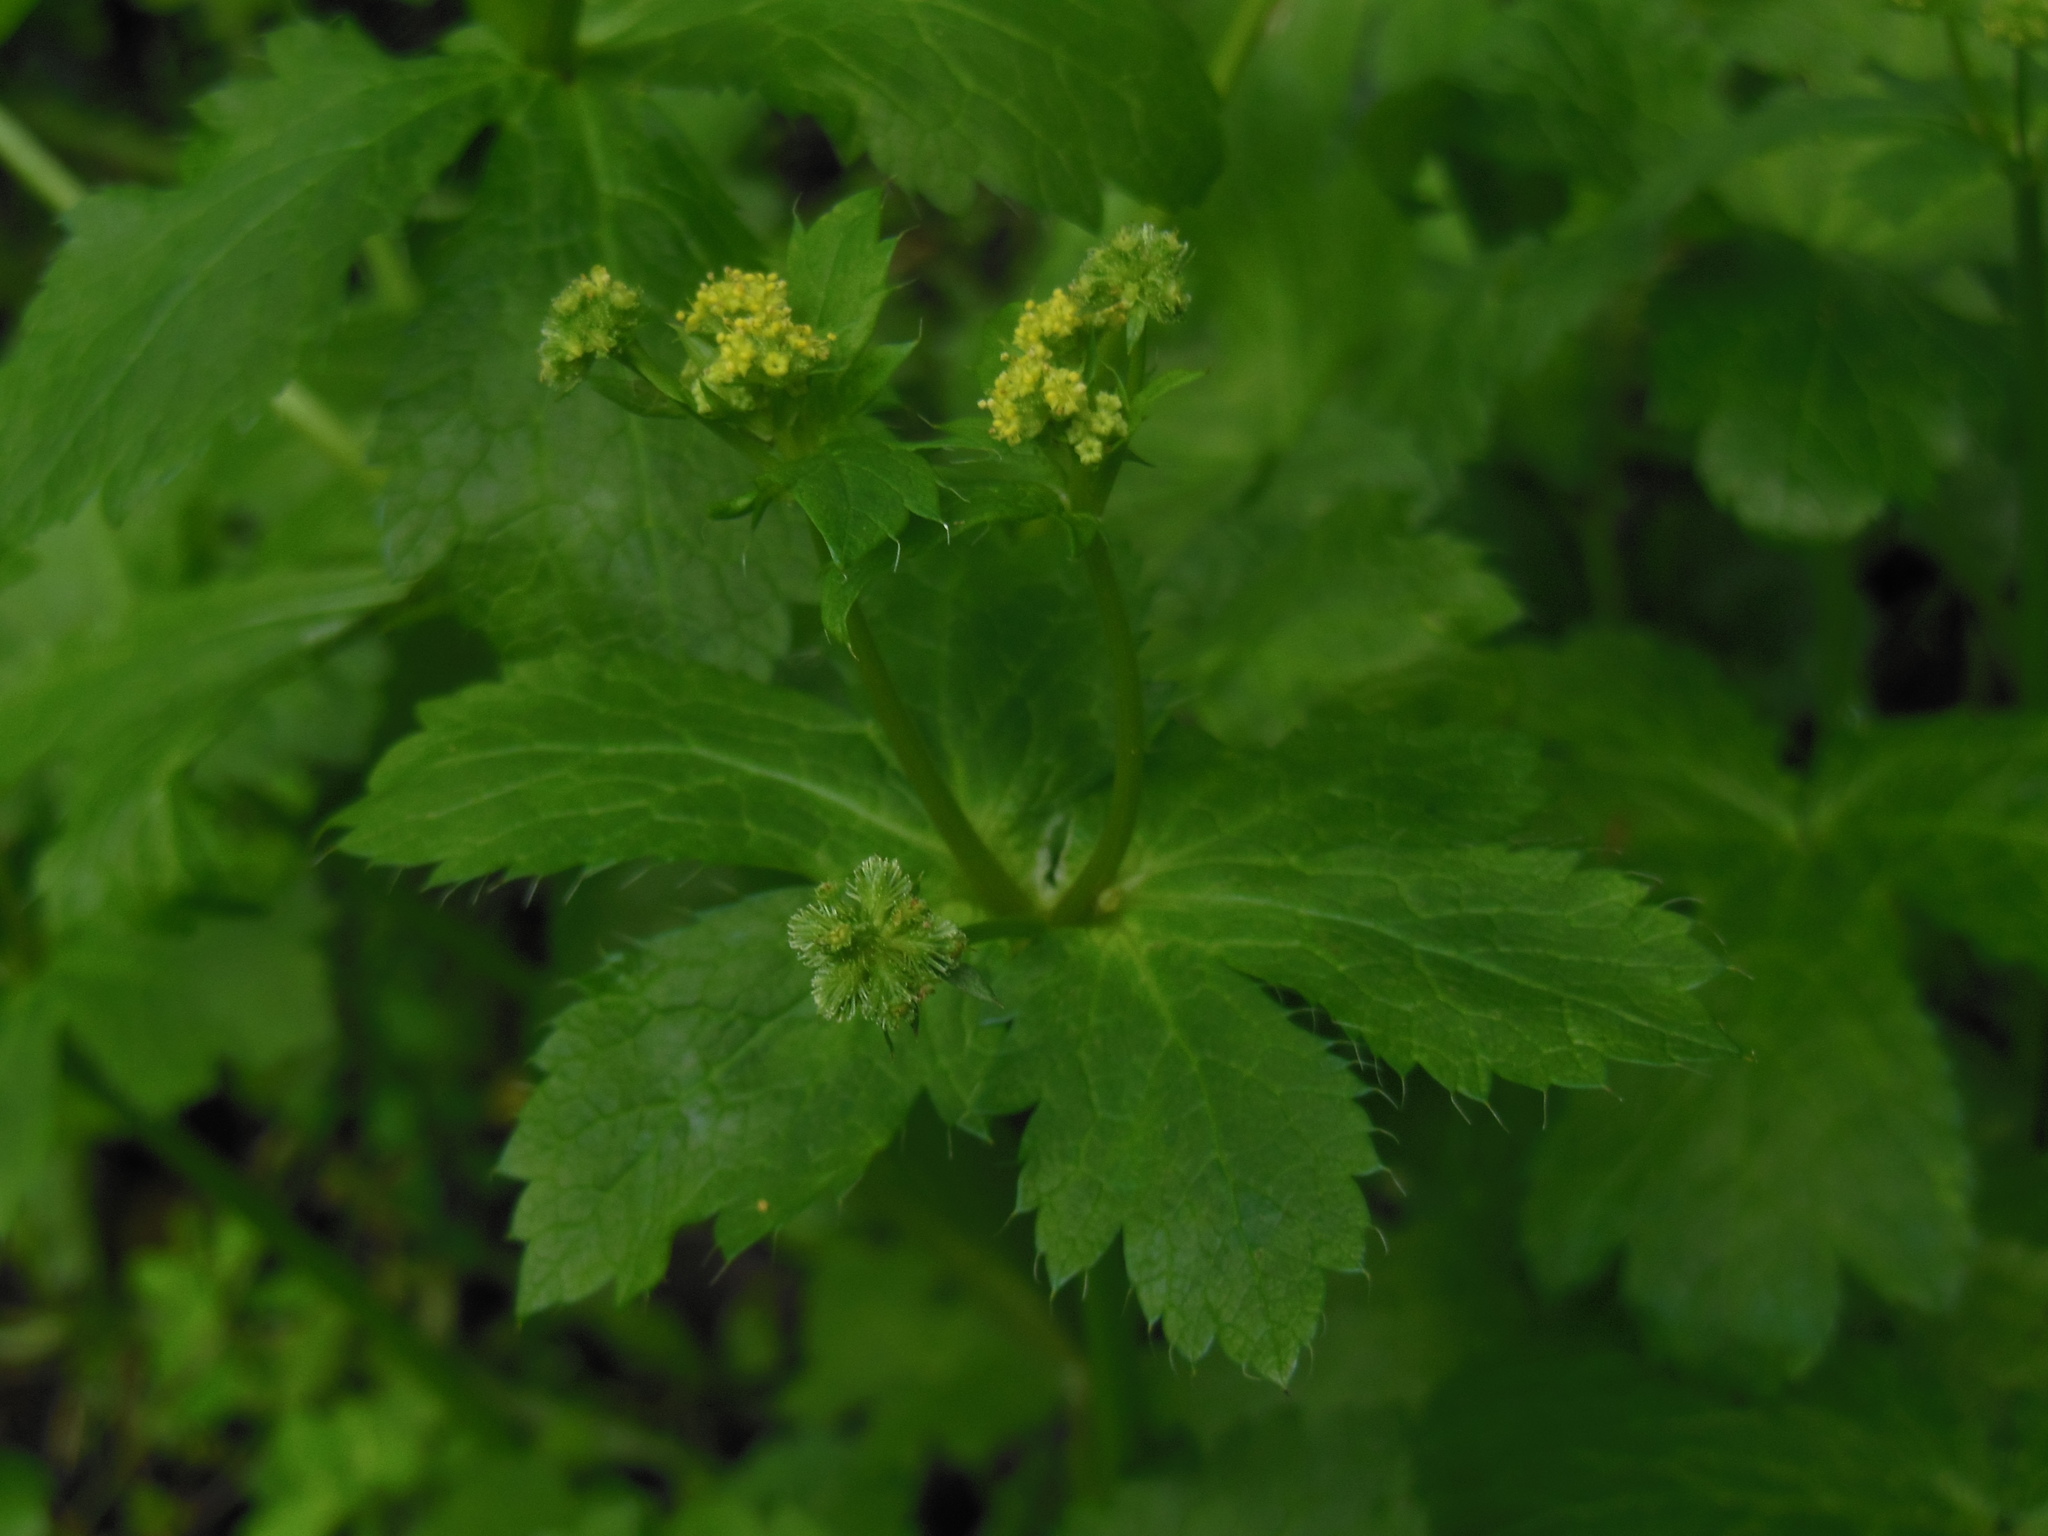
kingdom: Plantae
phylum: Tracheophyta
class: Magnoliopsida
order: Apiales
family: Apiaceae
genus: Sanicula
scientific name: Sanicula crassicaulis
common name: Western snakeroot
